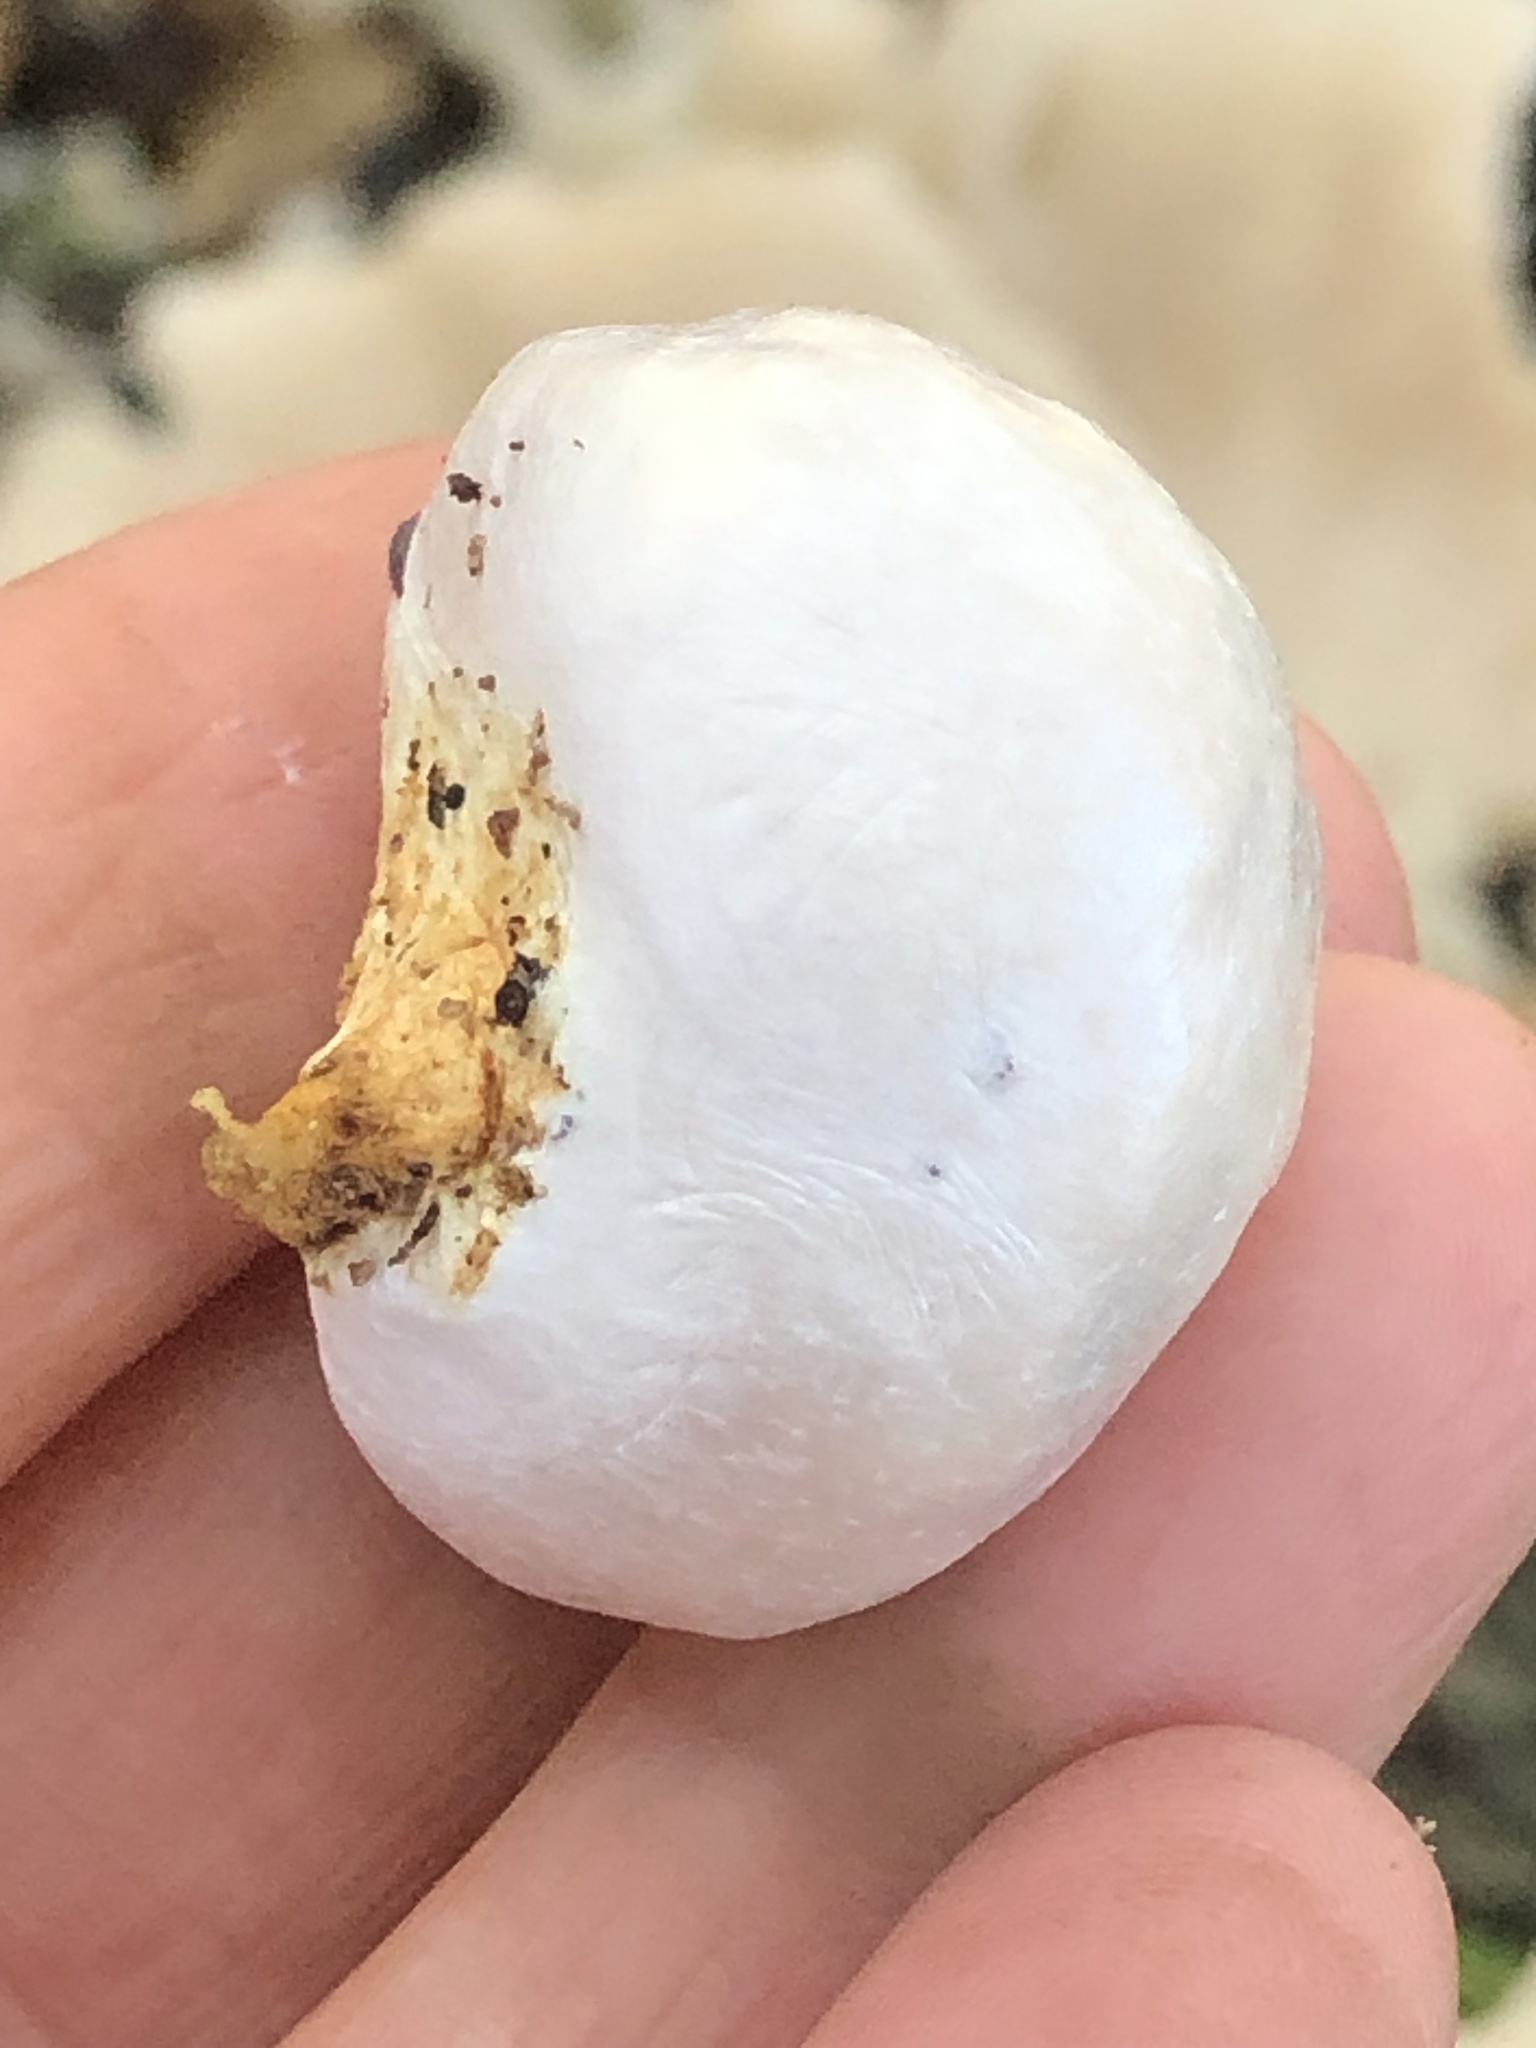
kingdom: Protozoa
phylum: Mycetozoa
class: Myxomycetes
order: Cribrariales
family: Tubiferaceae
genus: Reticularia
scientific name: Reticularia lycoperdon
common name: False puffball
